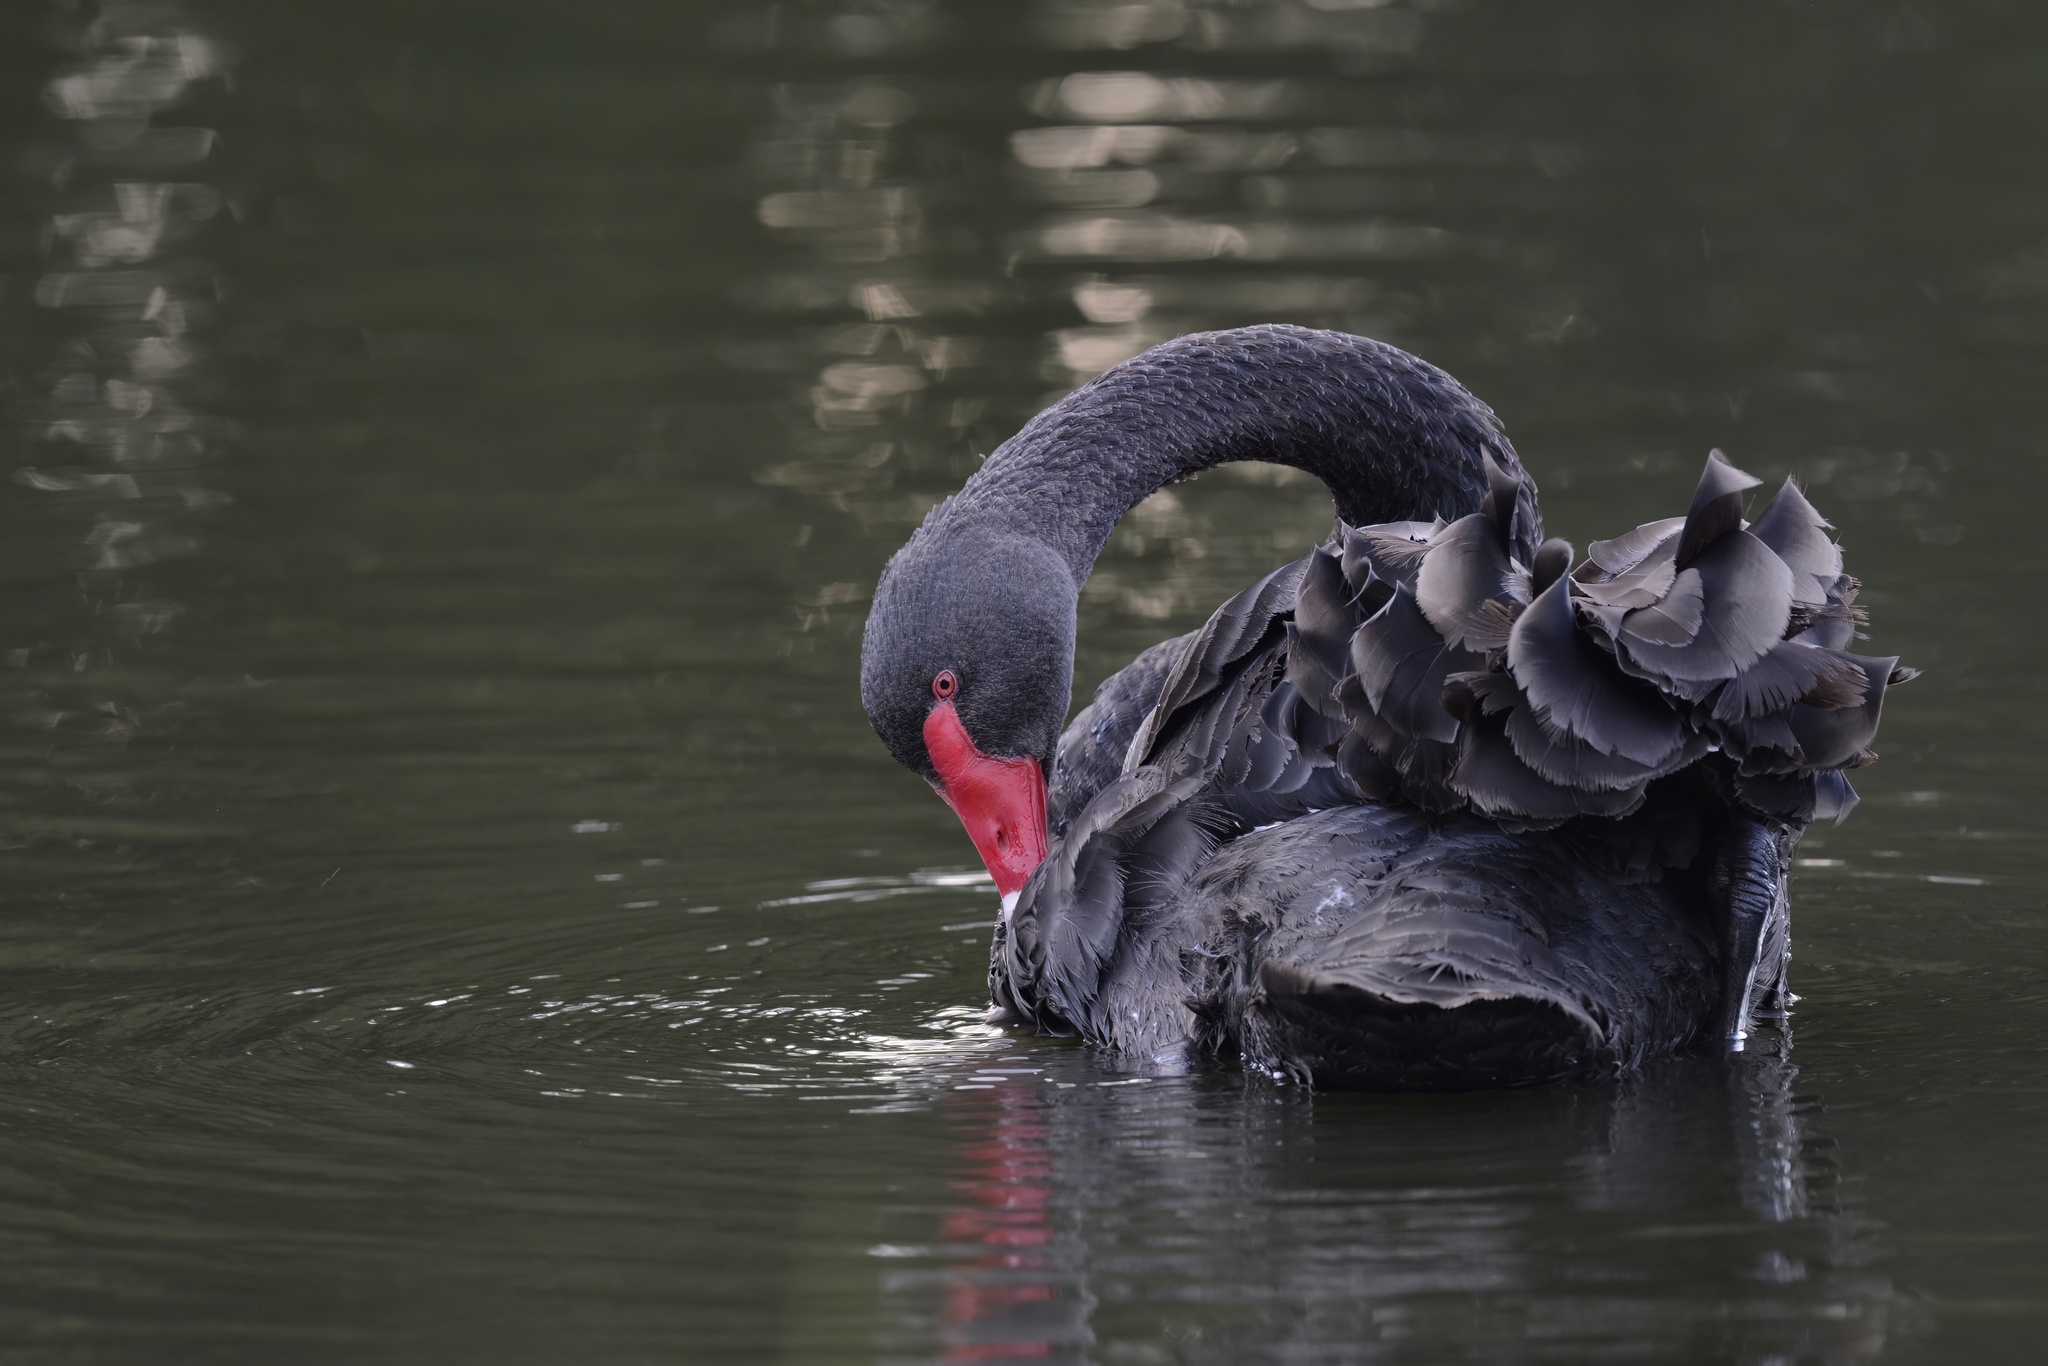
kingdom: Animalia
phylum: Chordata
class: Aves
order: Anseriformes
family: Anatidae
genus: Cygnus
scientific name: Cygnus atratus
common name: Black swan
